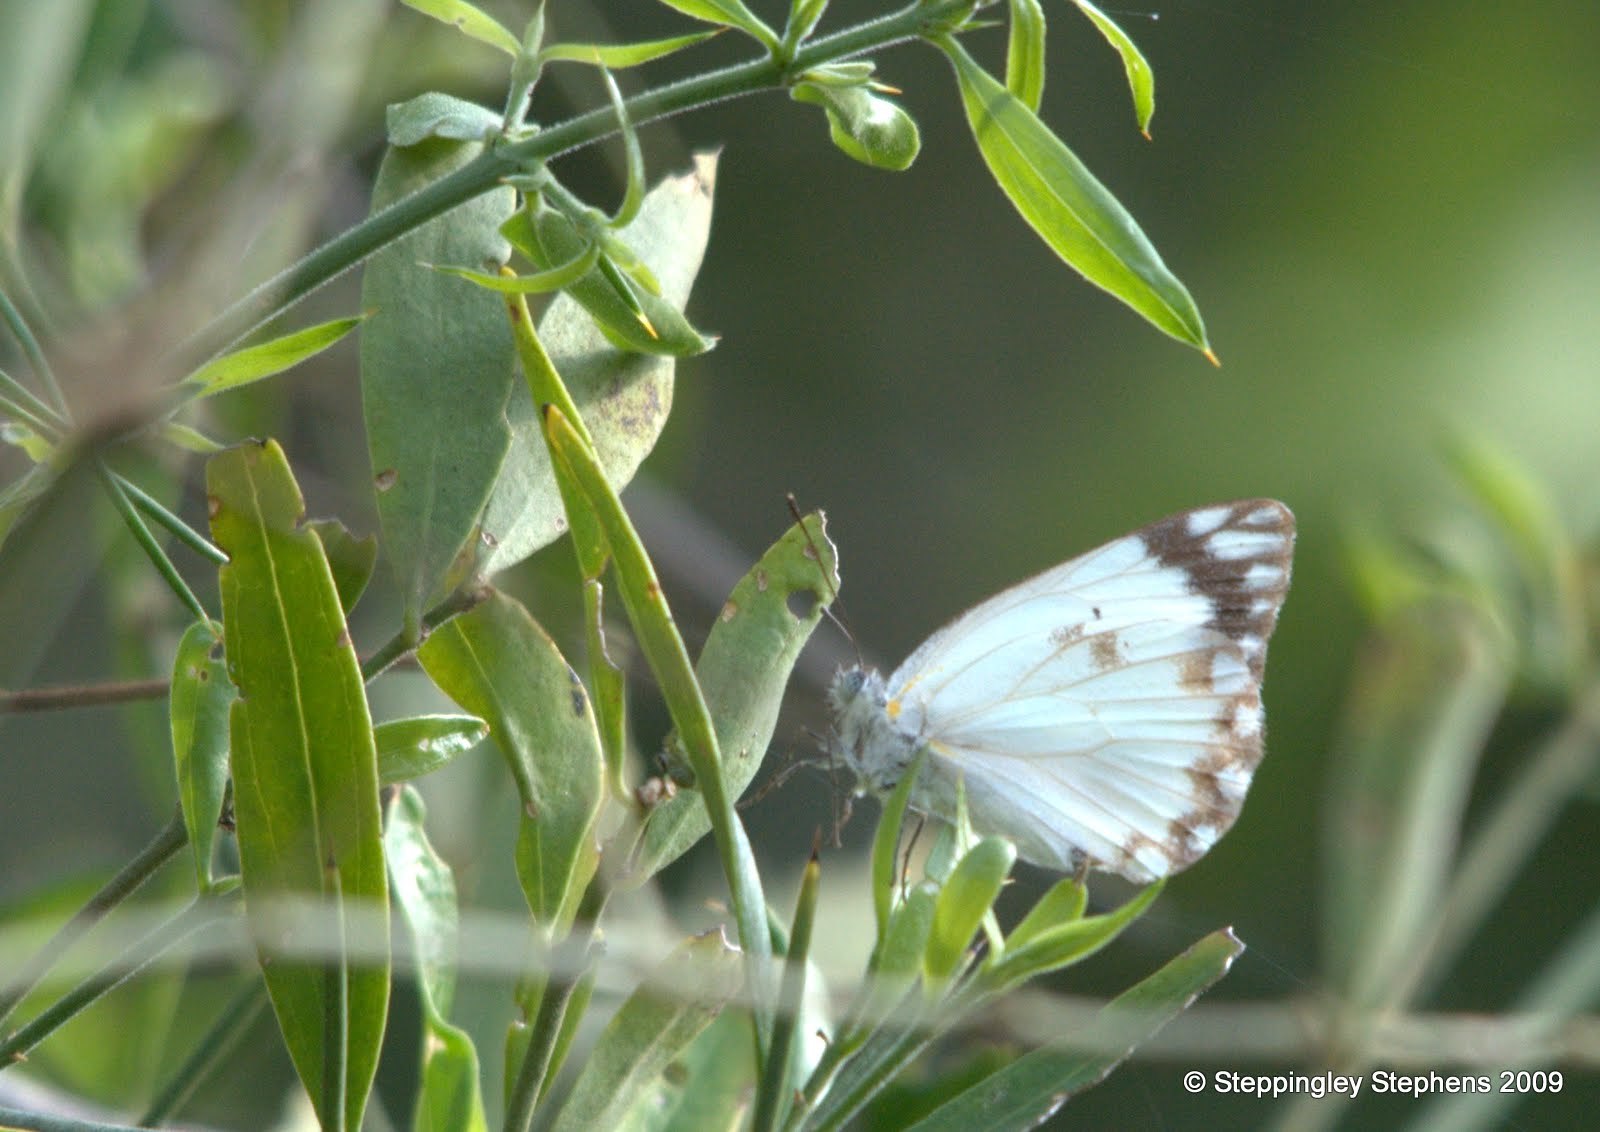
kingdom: Animalia
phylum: Arthropoda
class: Insecta
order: Lepidoptera
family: Pieridae
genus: Belenois
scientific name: Belenois creona
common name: African caper white
